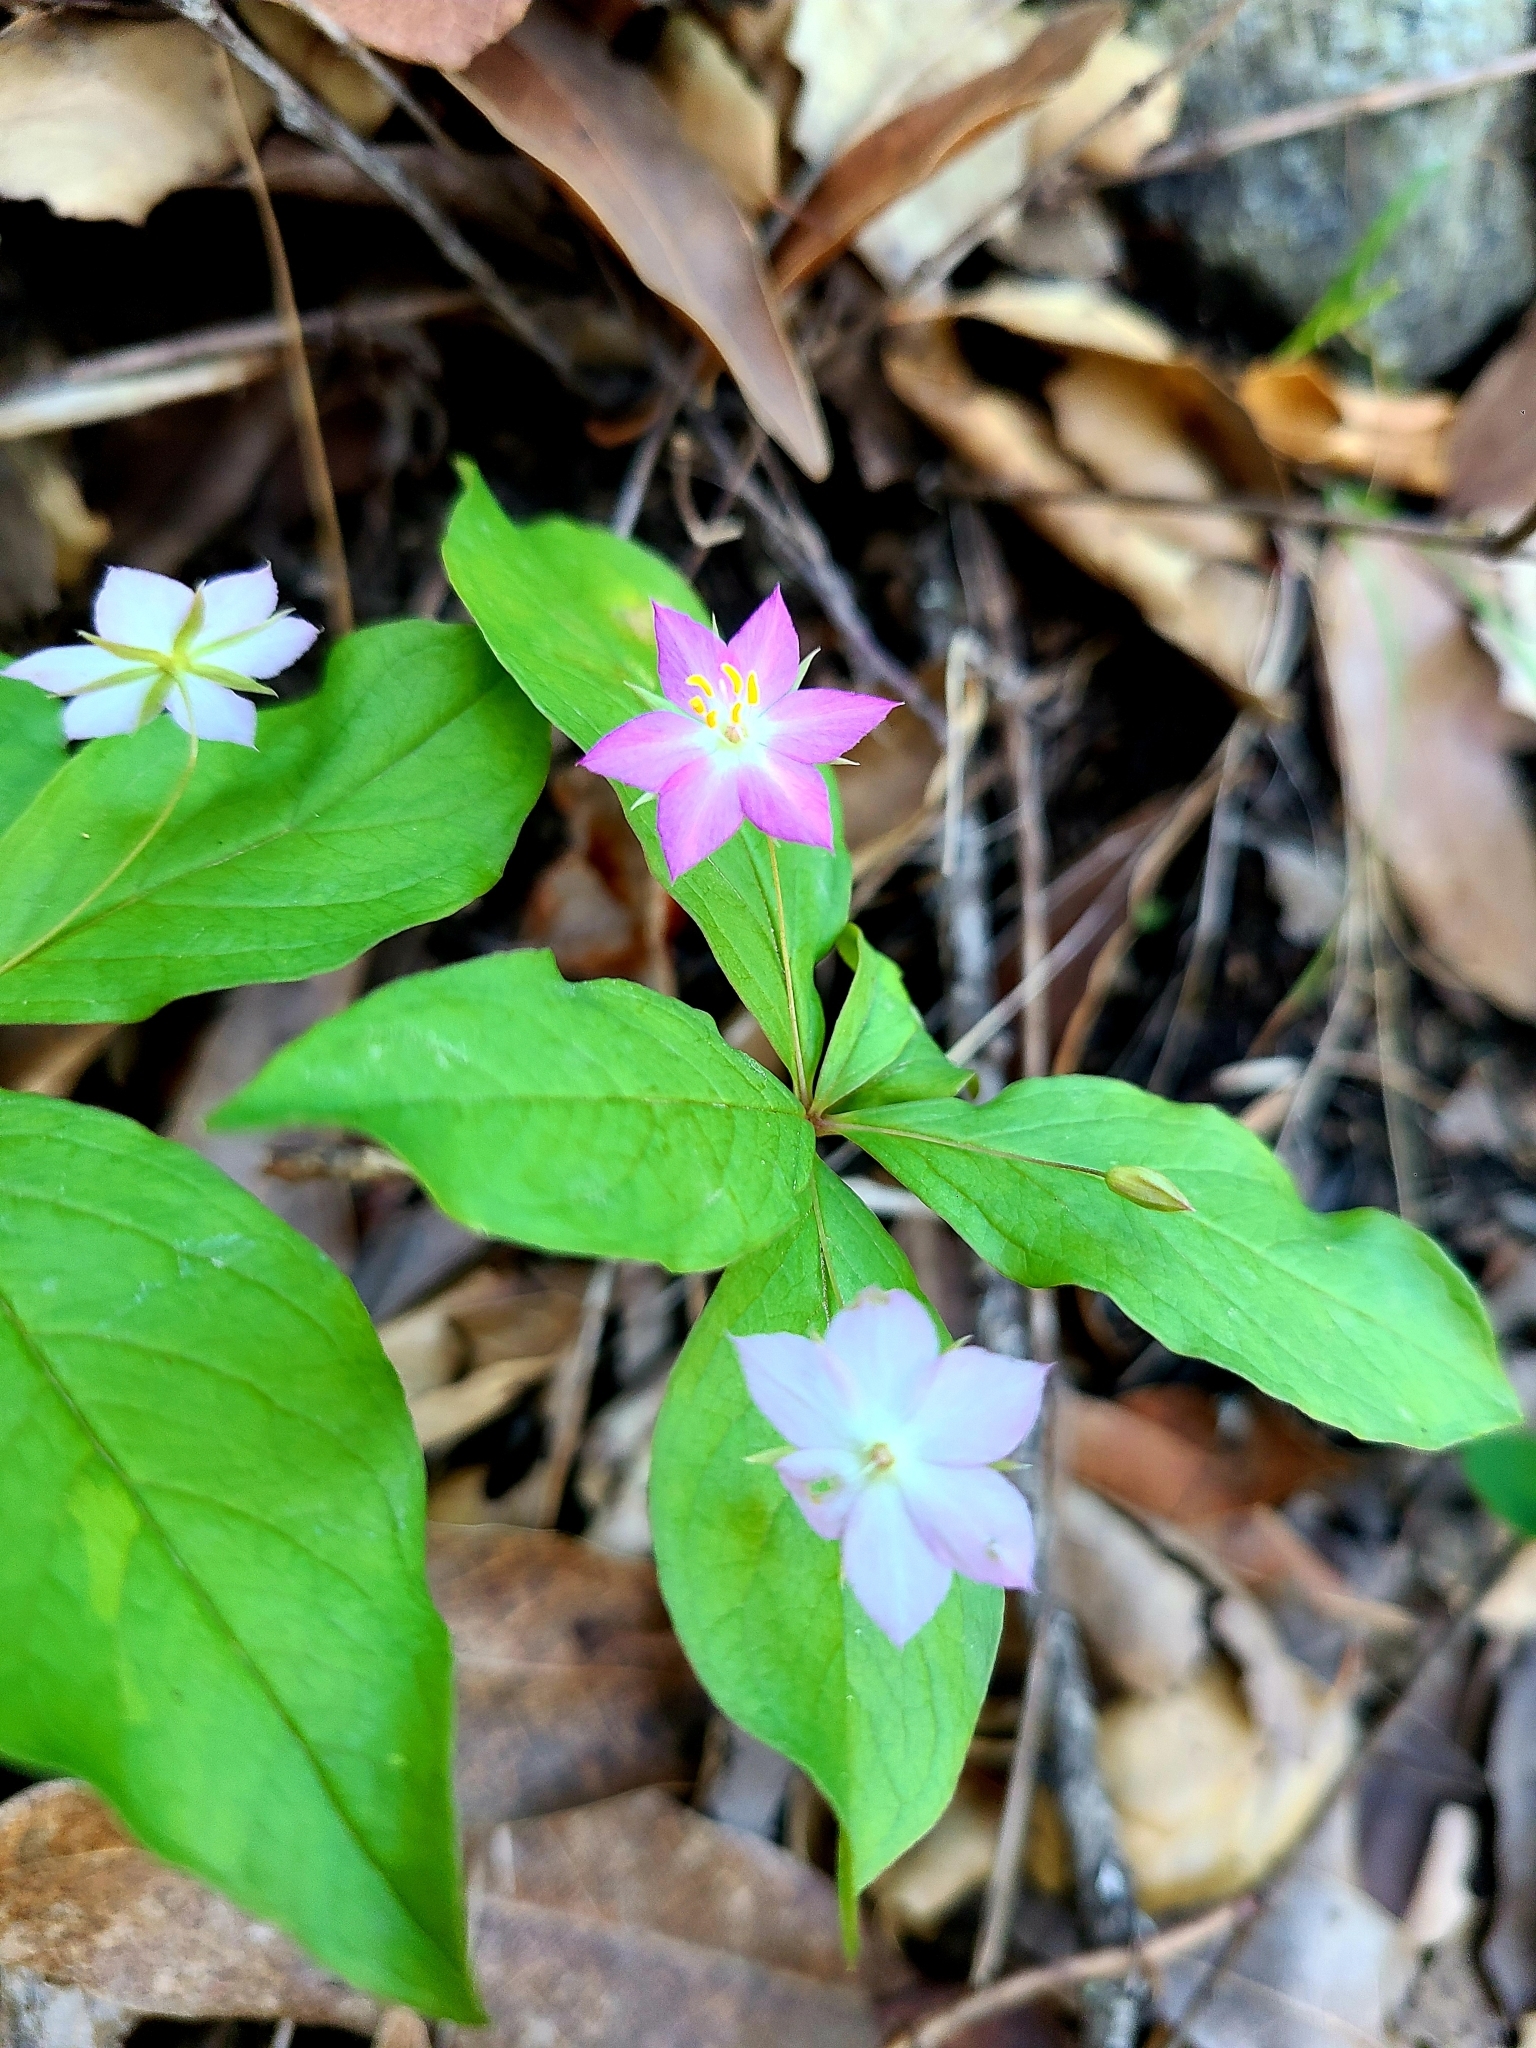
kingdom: Plantae
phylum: Tracheophyta
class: Magnoliopsida
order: Ericales
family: Primulaceae
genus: Lysimachia
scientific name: Lysimachia latifolia
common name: Pacific starflower
